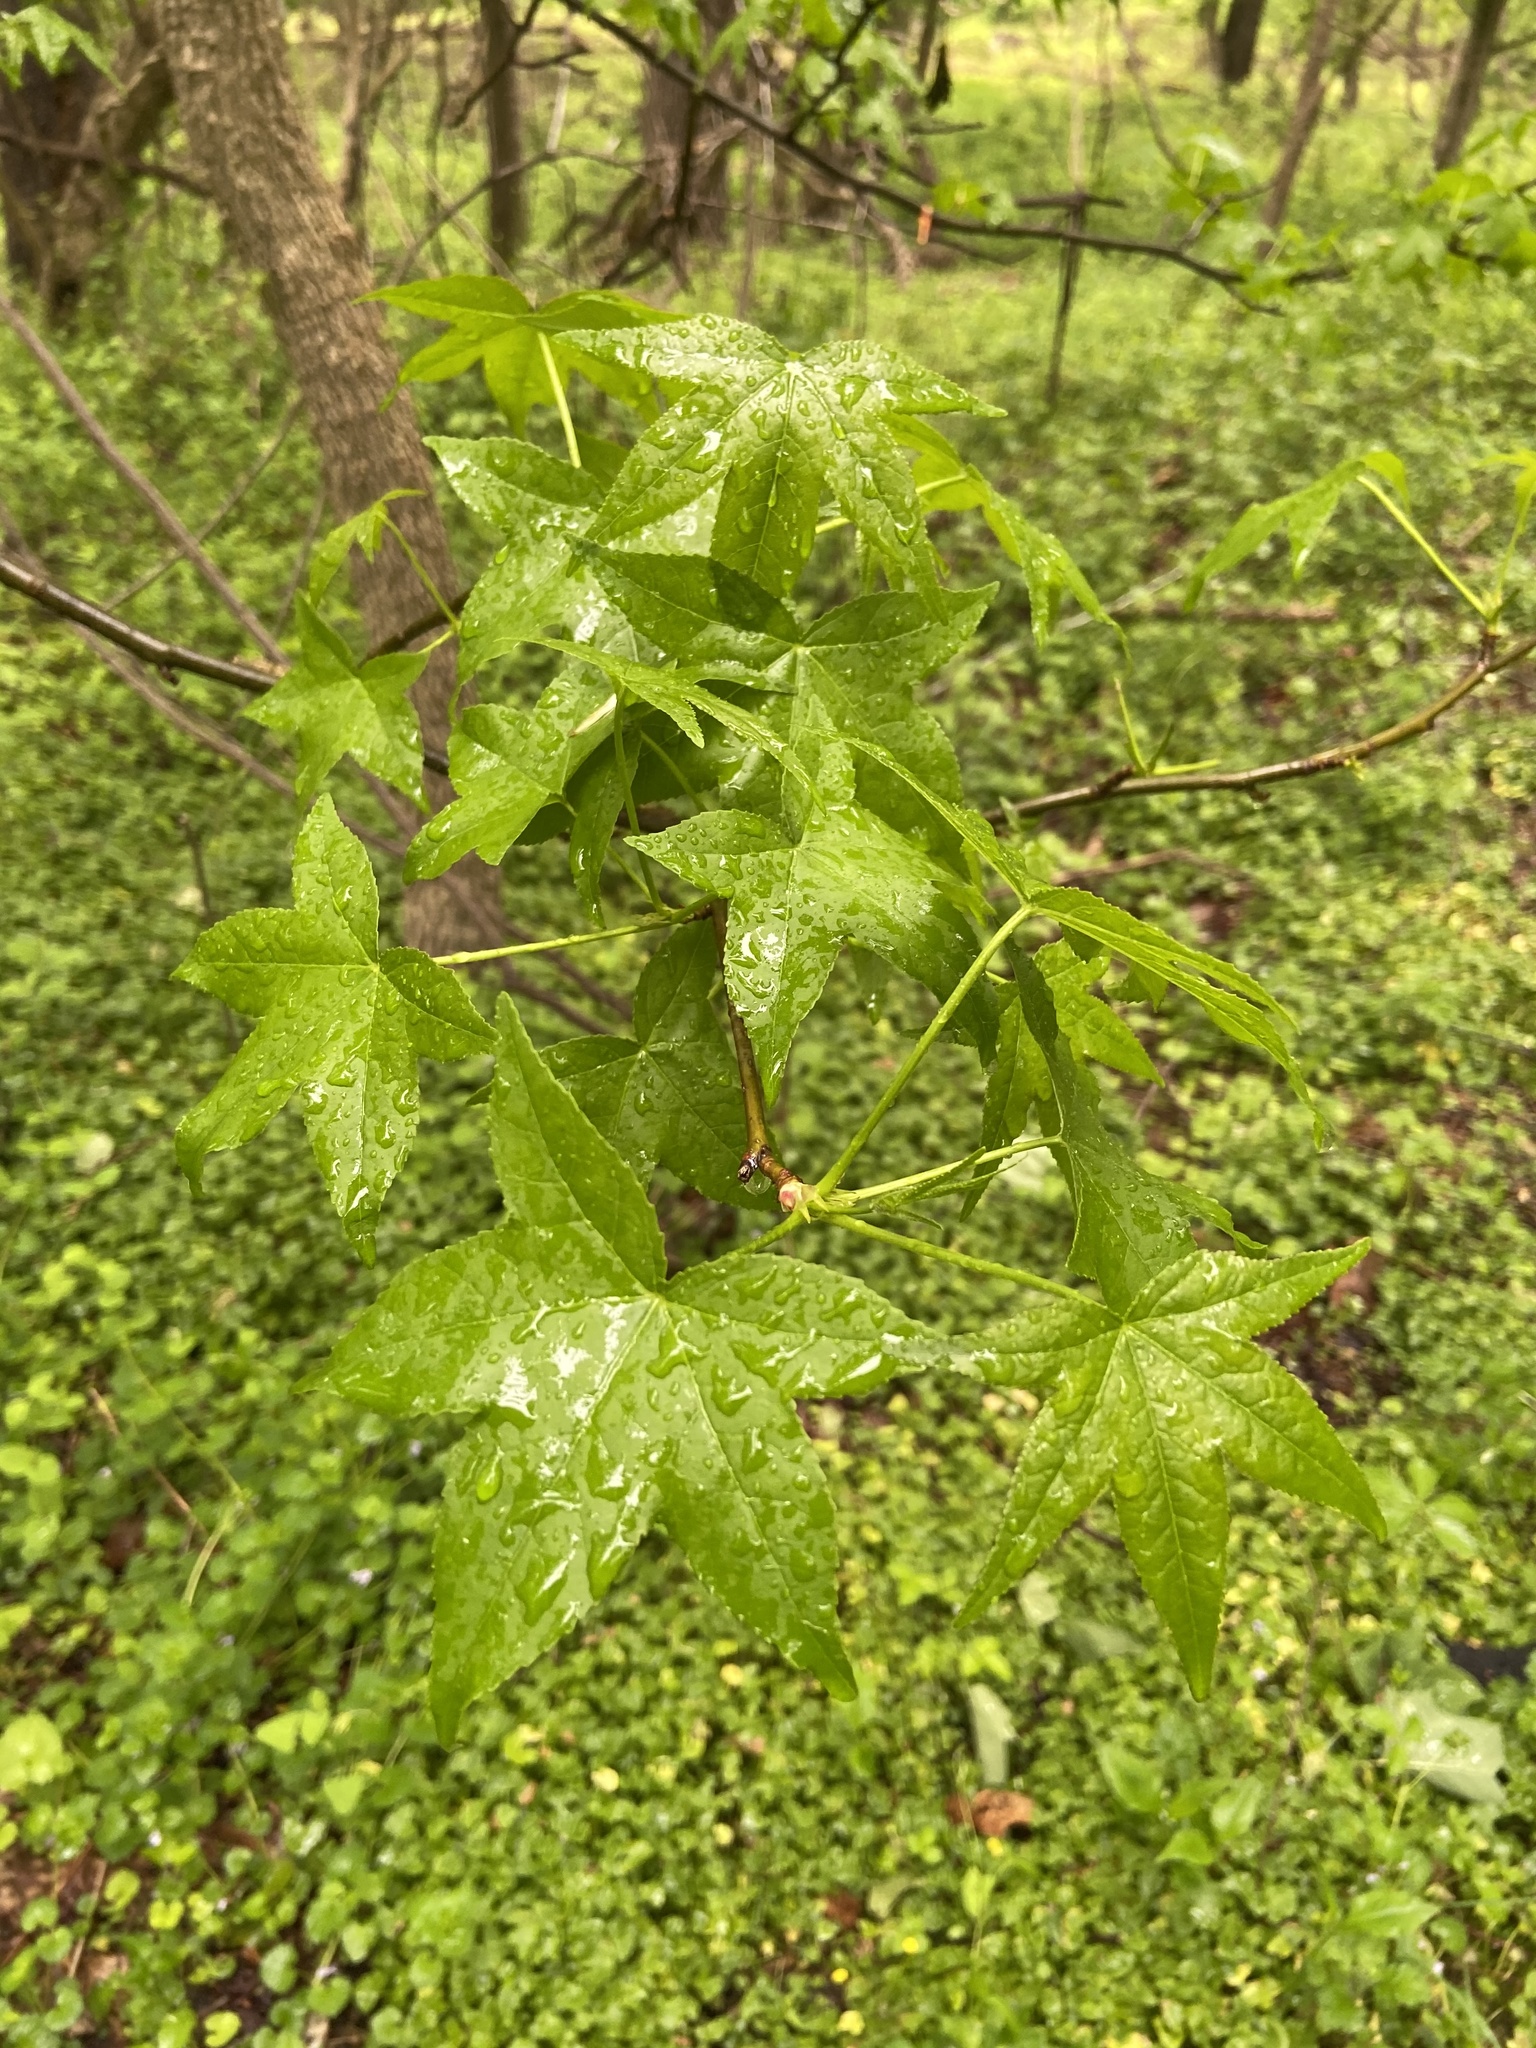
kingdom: Plantae
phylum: Tracheophyta
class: Magnoliopsida
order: Saxifragales
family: Altingiaceae
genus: Liquidambar
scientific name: Liquidambar styraciflua
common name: Sweet gum
